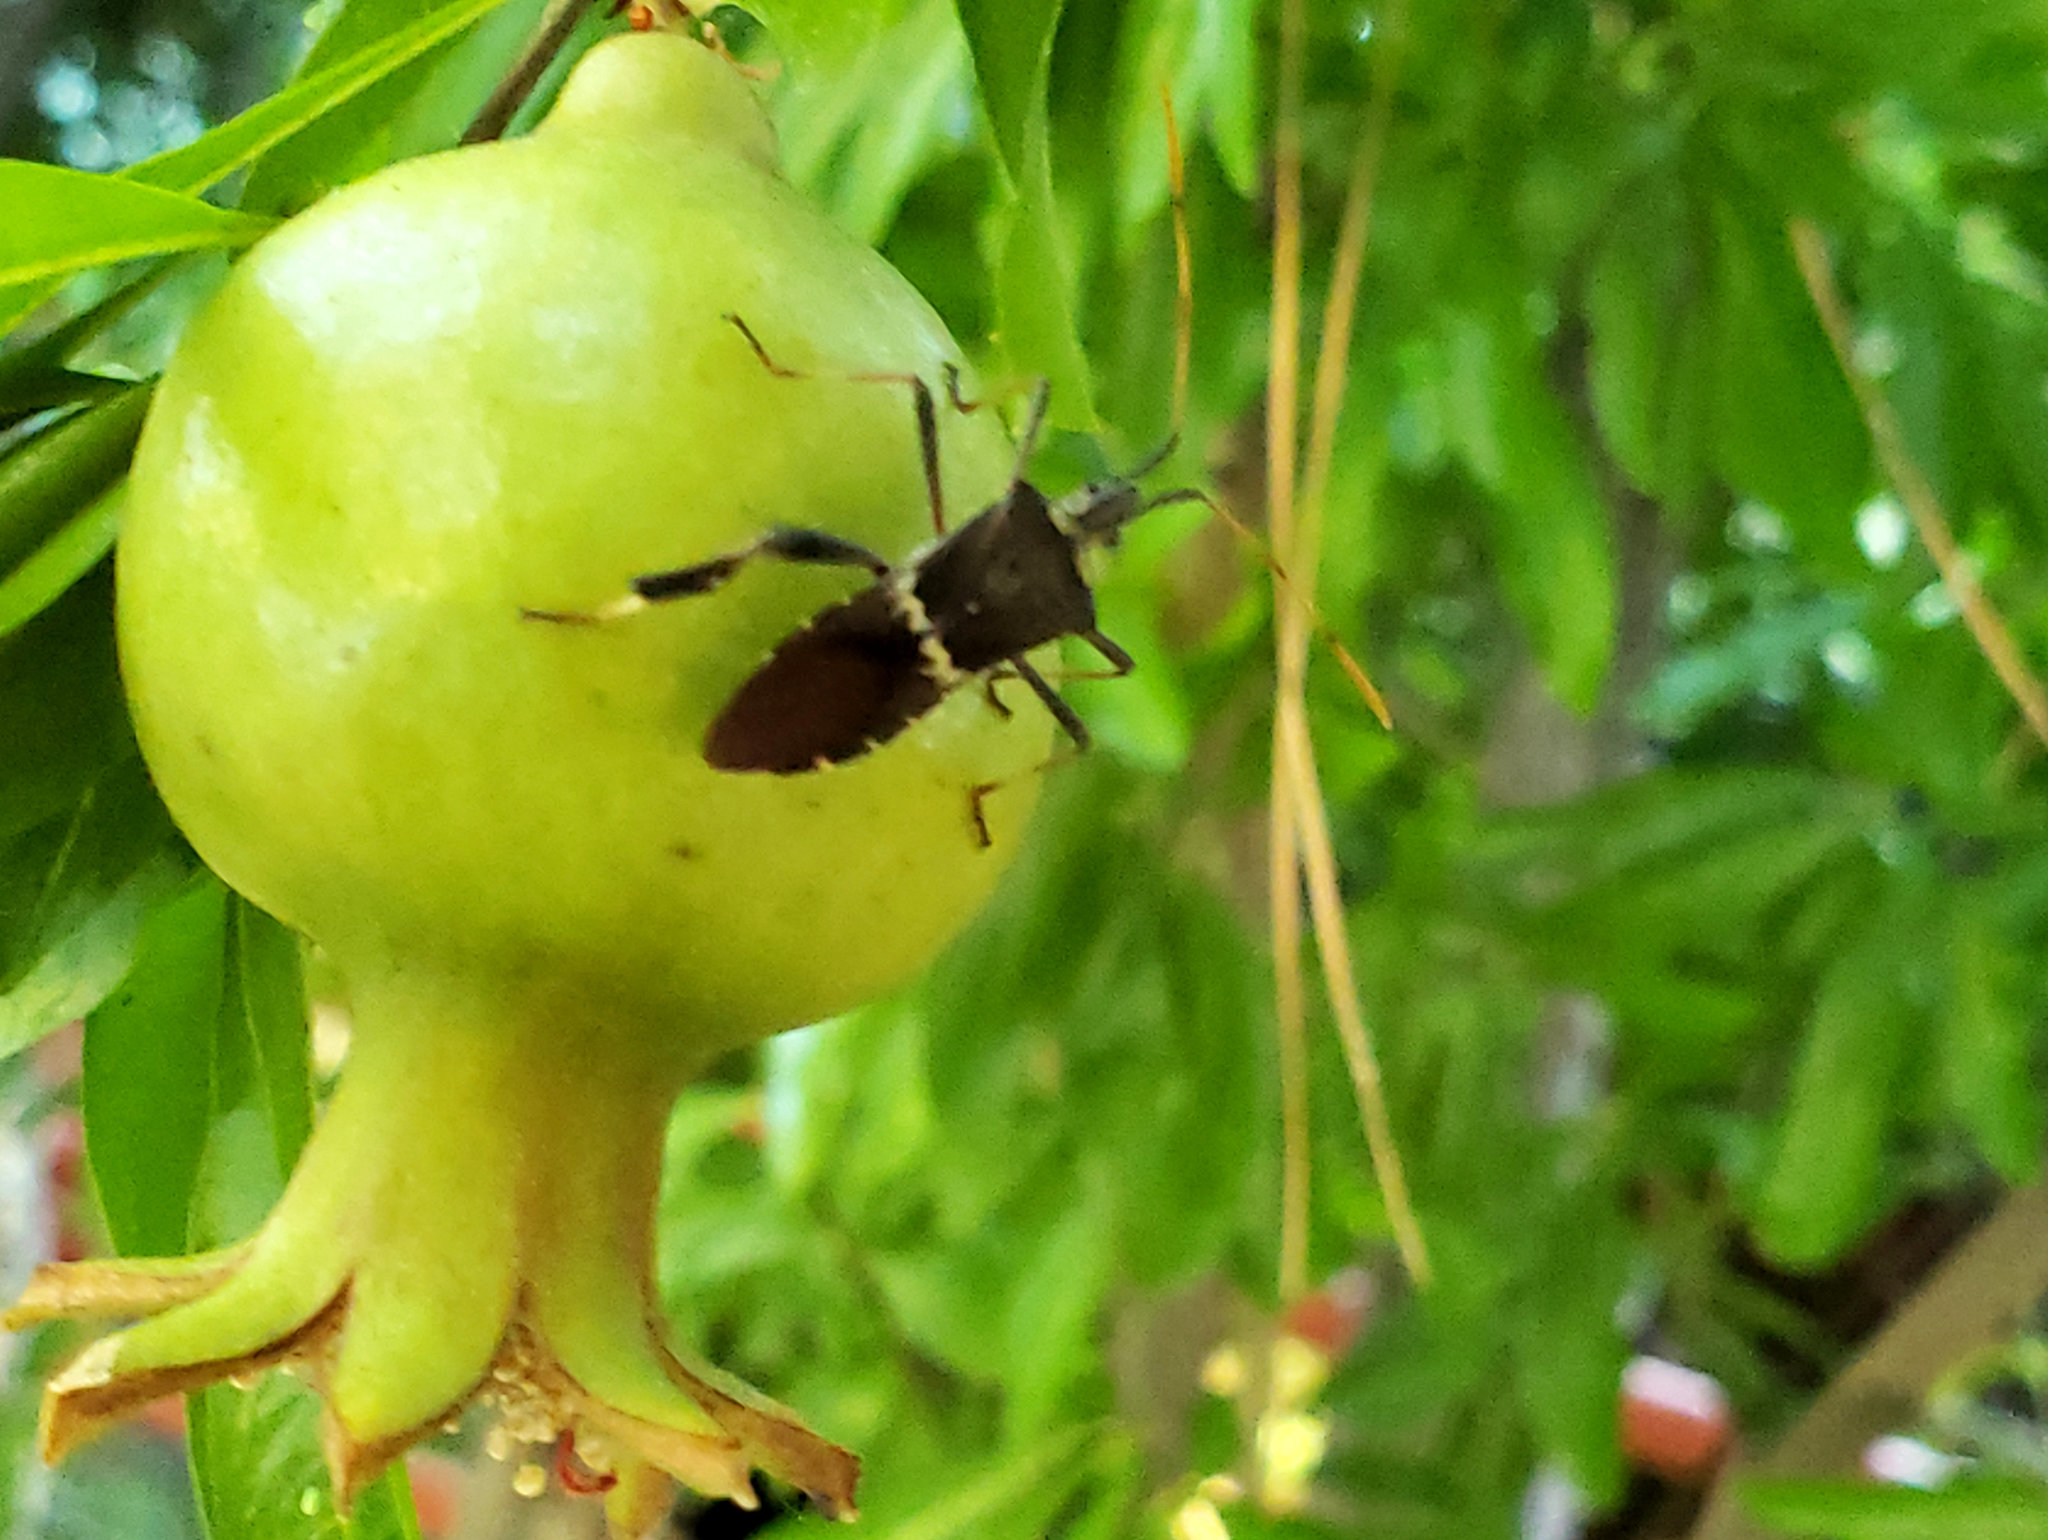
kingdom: Animalia
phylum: Arthropoda
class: Insecta
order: Hemiptera
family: Coreidae
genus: Leptoglossus
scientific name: Leptoglossus zonatus
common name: Large-legged bug
